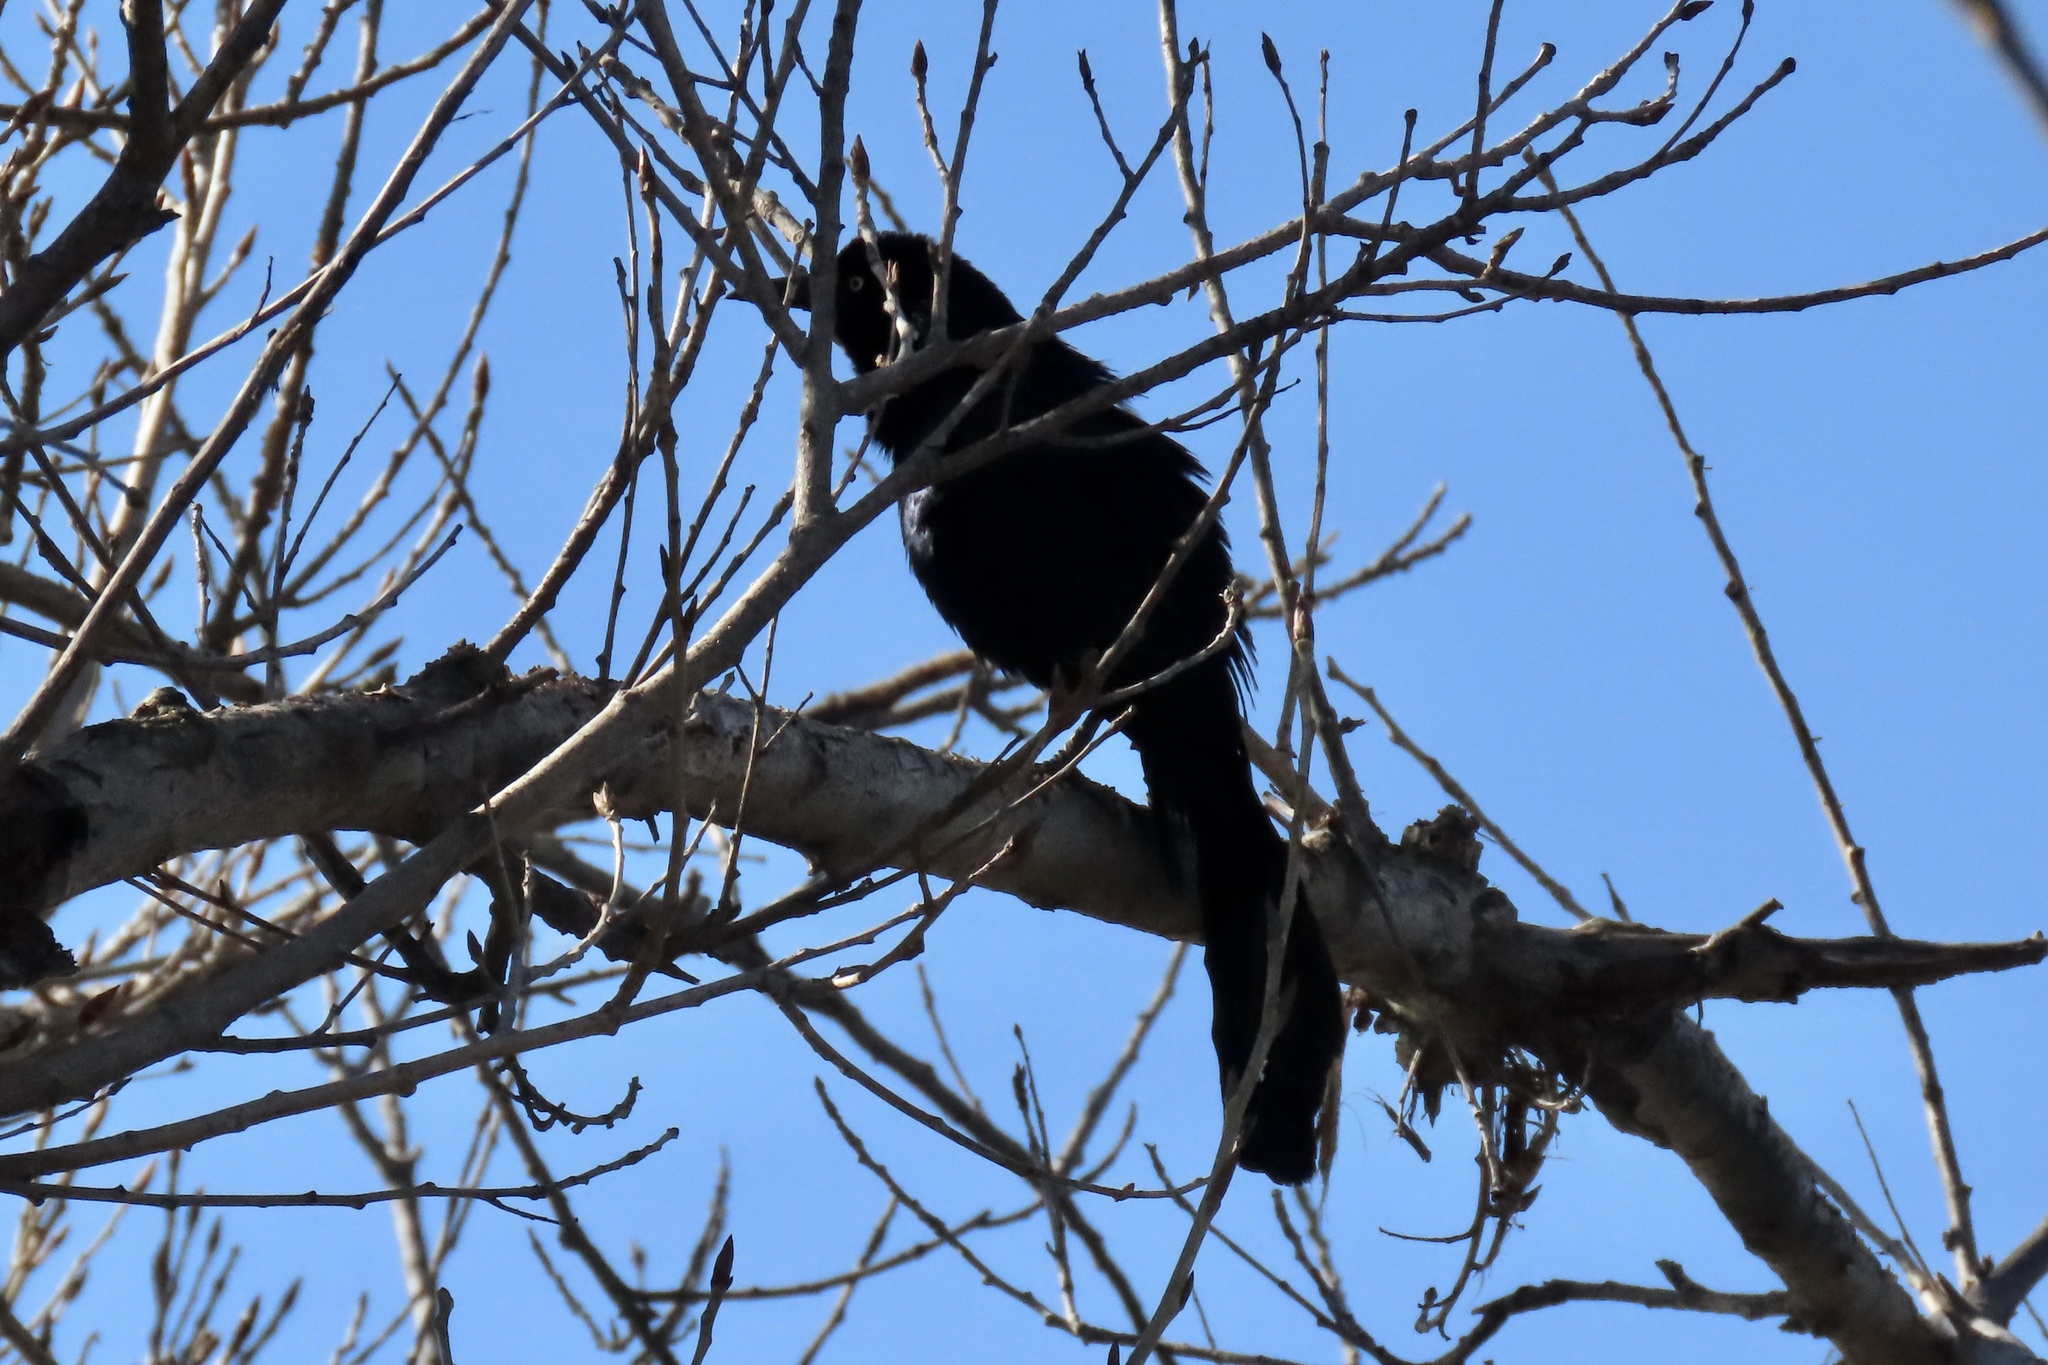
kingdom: Animalia
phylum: Chordata
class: Aves
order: Passeriformes
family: Icteridae
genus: Quiscalus
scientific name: Quiscalus mexicanus
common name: Great-tailed grackle
